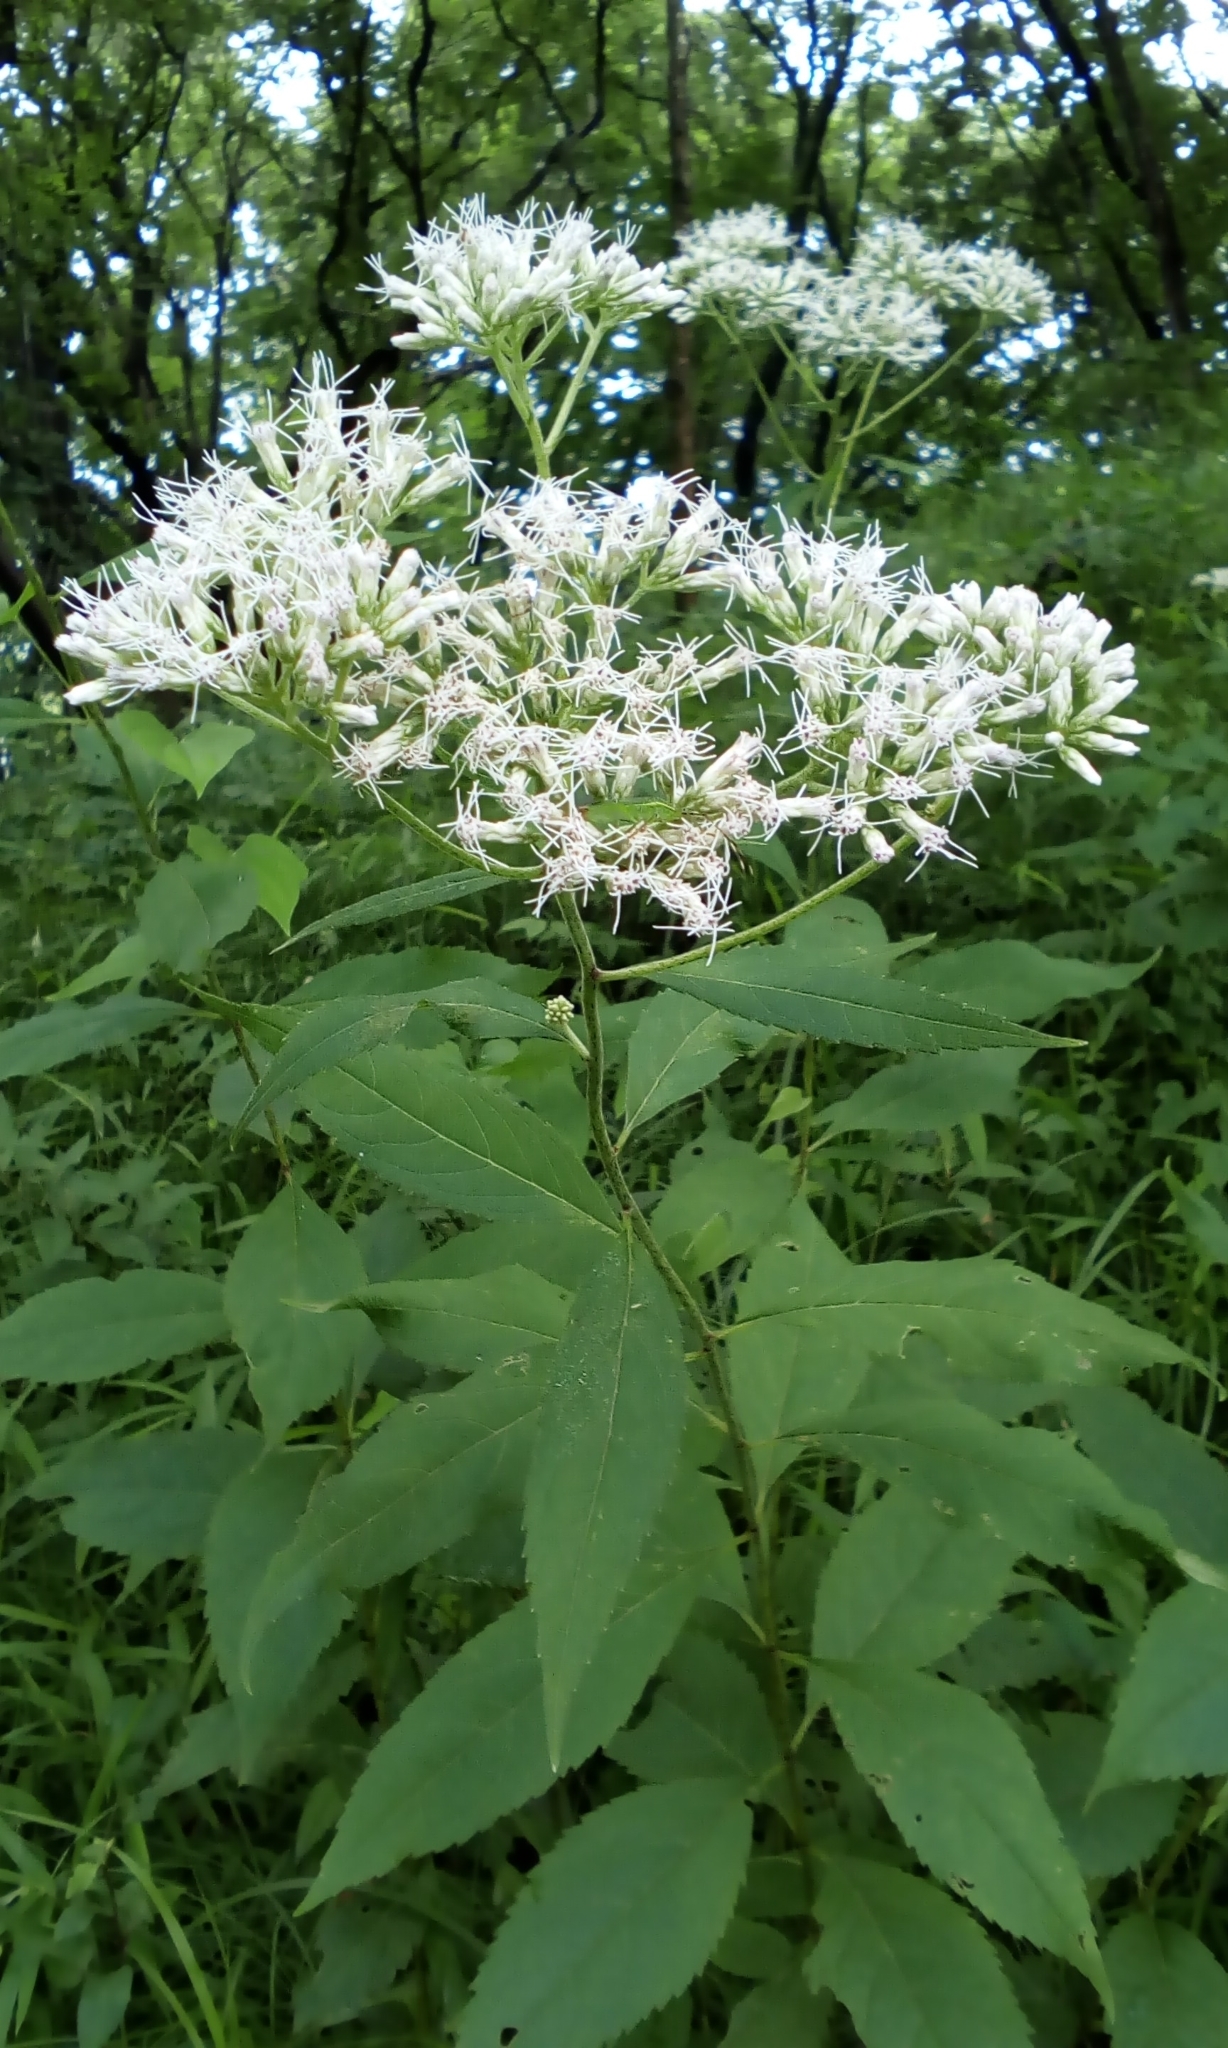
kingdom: Plantae
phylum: Tracheophyta
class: Magnoliopsida
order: Asterales
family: Asteraceae
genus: Eupatorium
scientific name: Eupatorium chinense
